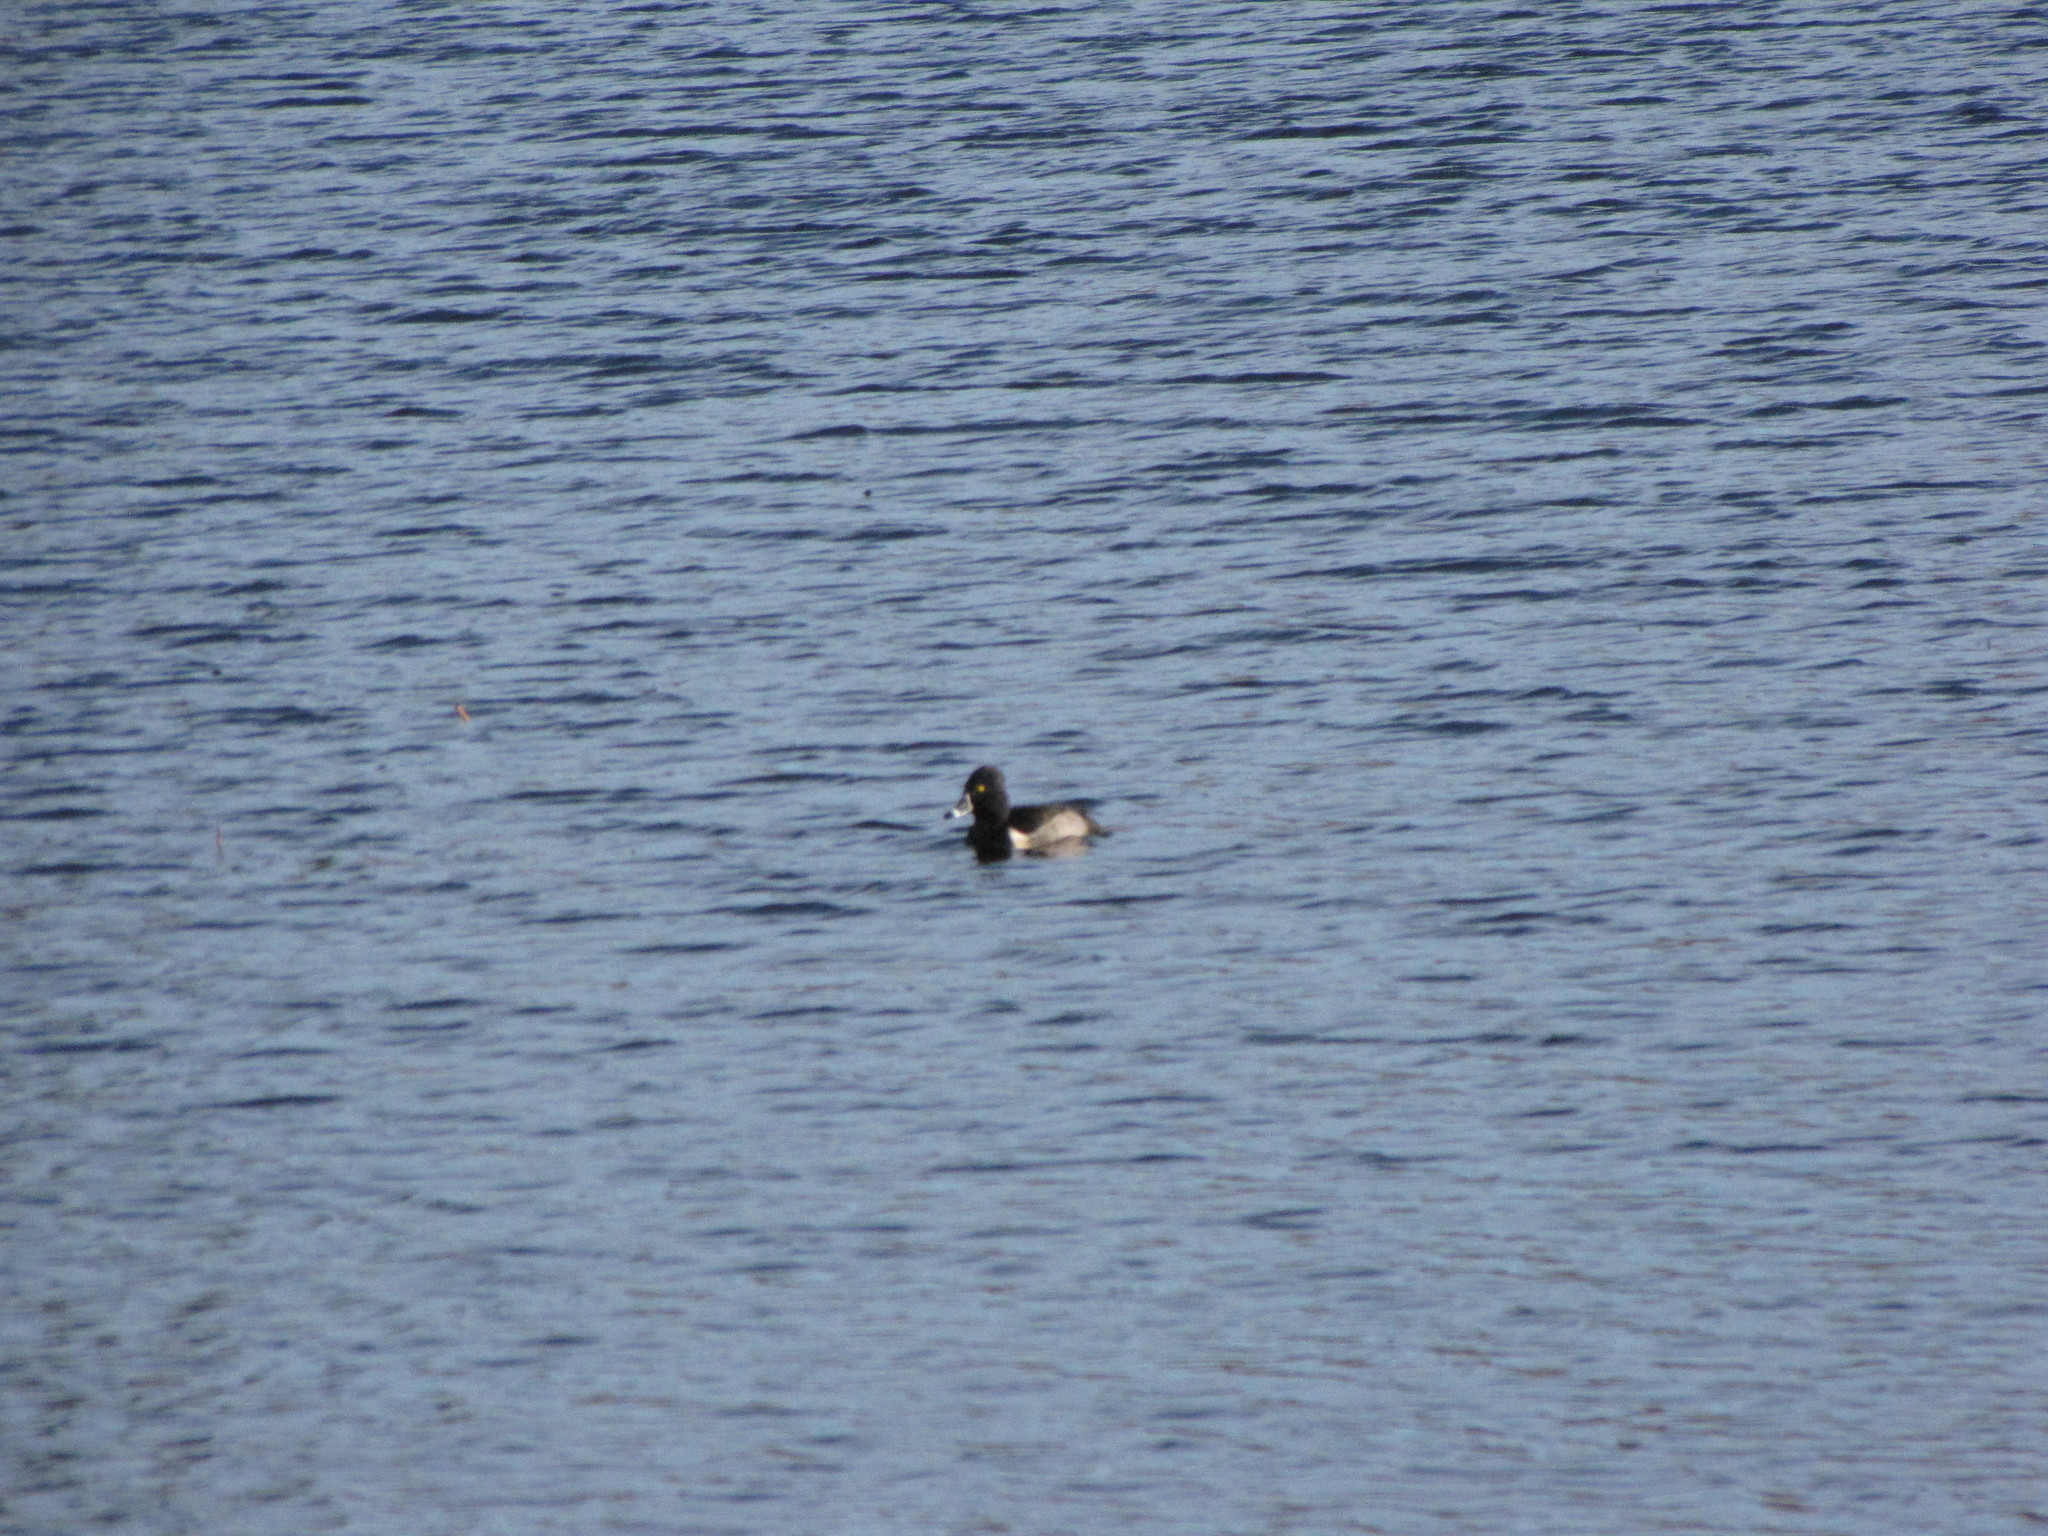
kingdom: Animalia
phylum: Chordata
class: Aves
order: Anseriformes
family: Anatidae
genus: Aythya
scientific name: Aythya collaris
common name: Ring-necked duck
